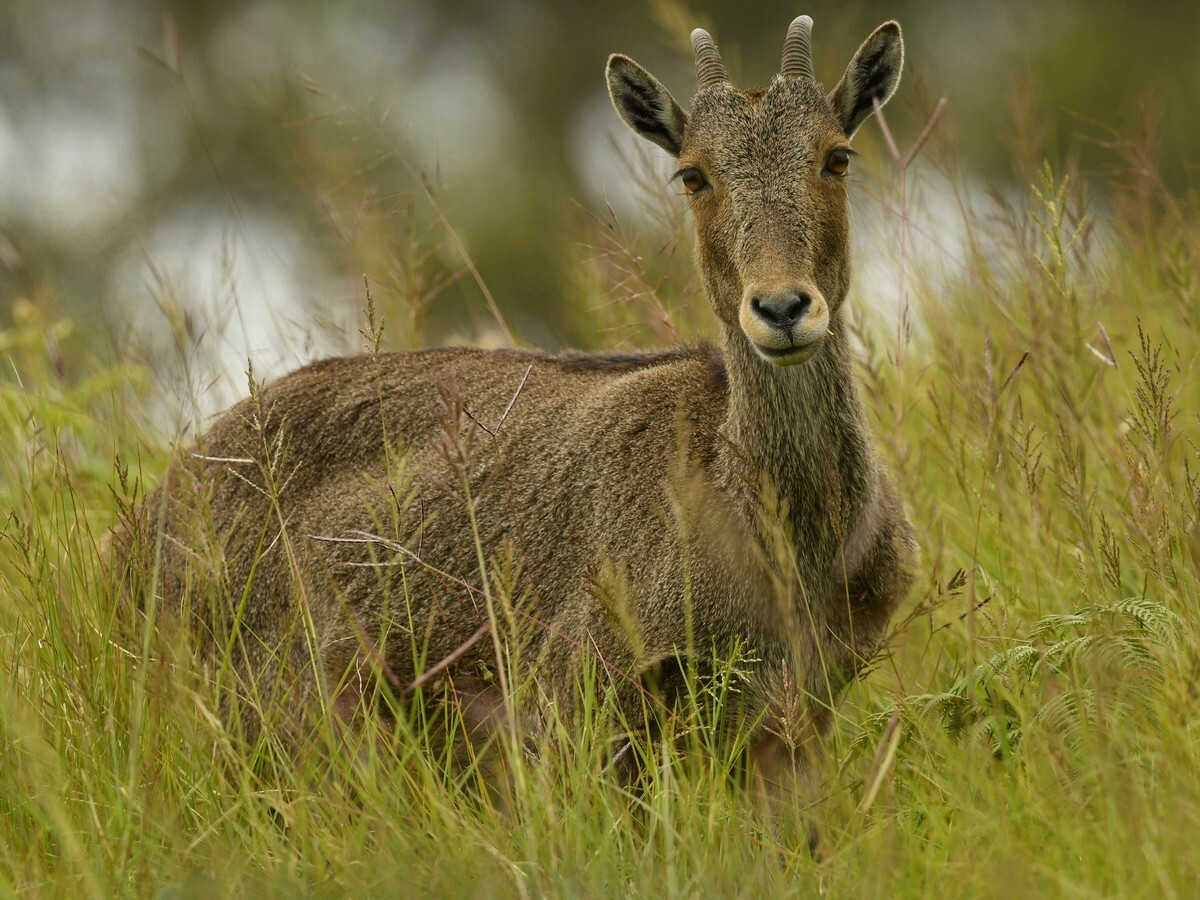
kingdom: Animalia
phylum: Chordata
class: Mammalia
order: Artiodactyla
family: Bovidae
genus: Hemitragus
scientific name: Hemitragus hylocrius
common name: Nilgiri tahr
